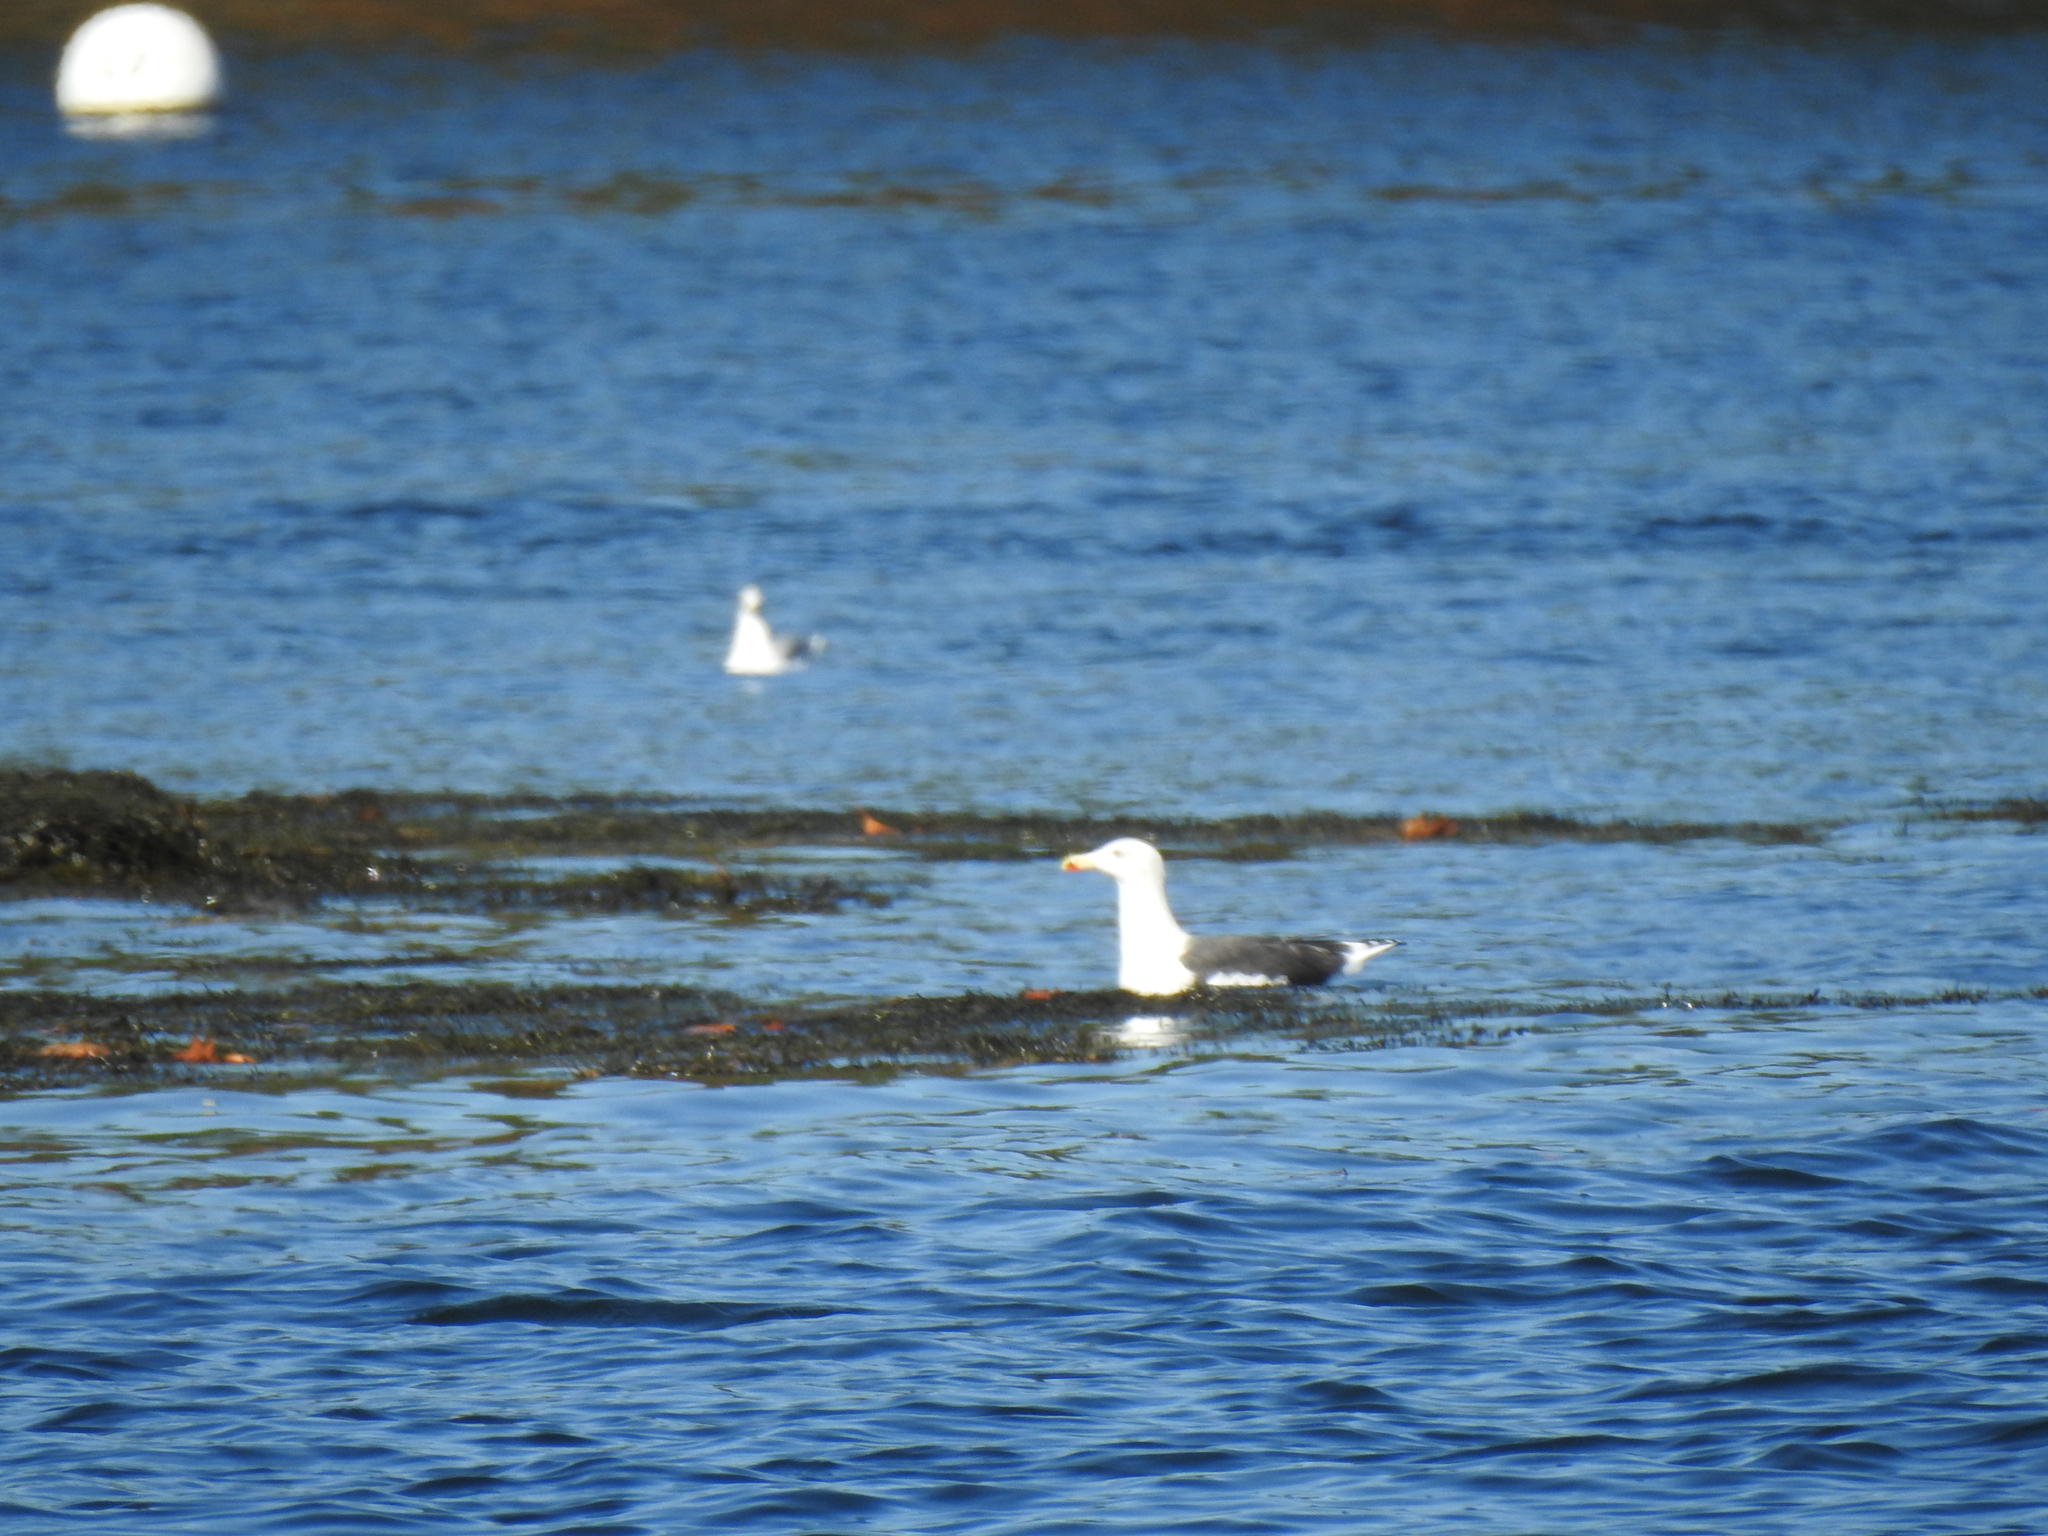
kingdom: Animalia
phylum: Chordata
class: Aves
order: Charadriiformes
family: Laridae
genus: Larus
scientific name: Larus marinus
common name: Great black-backed gull
